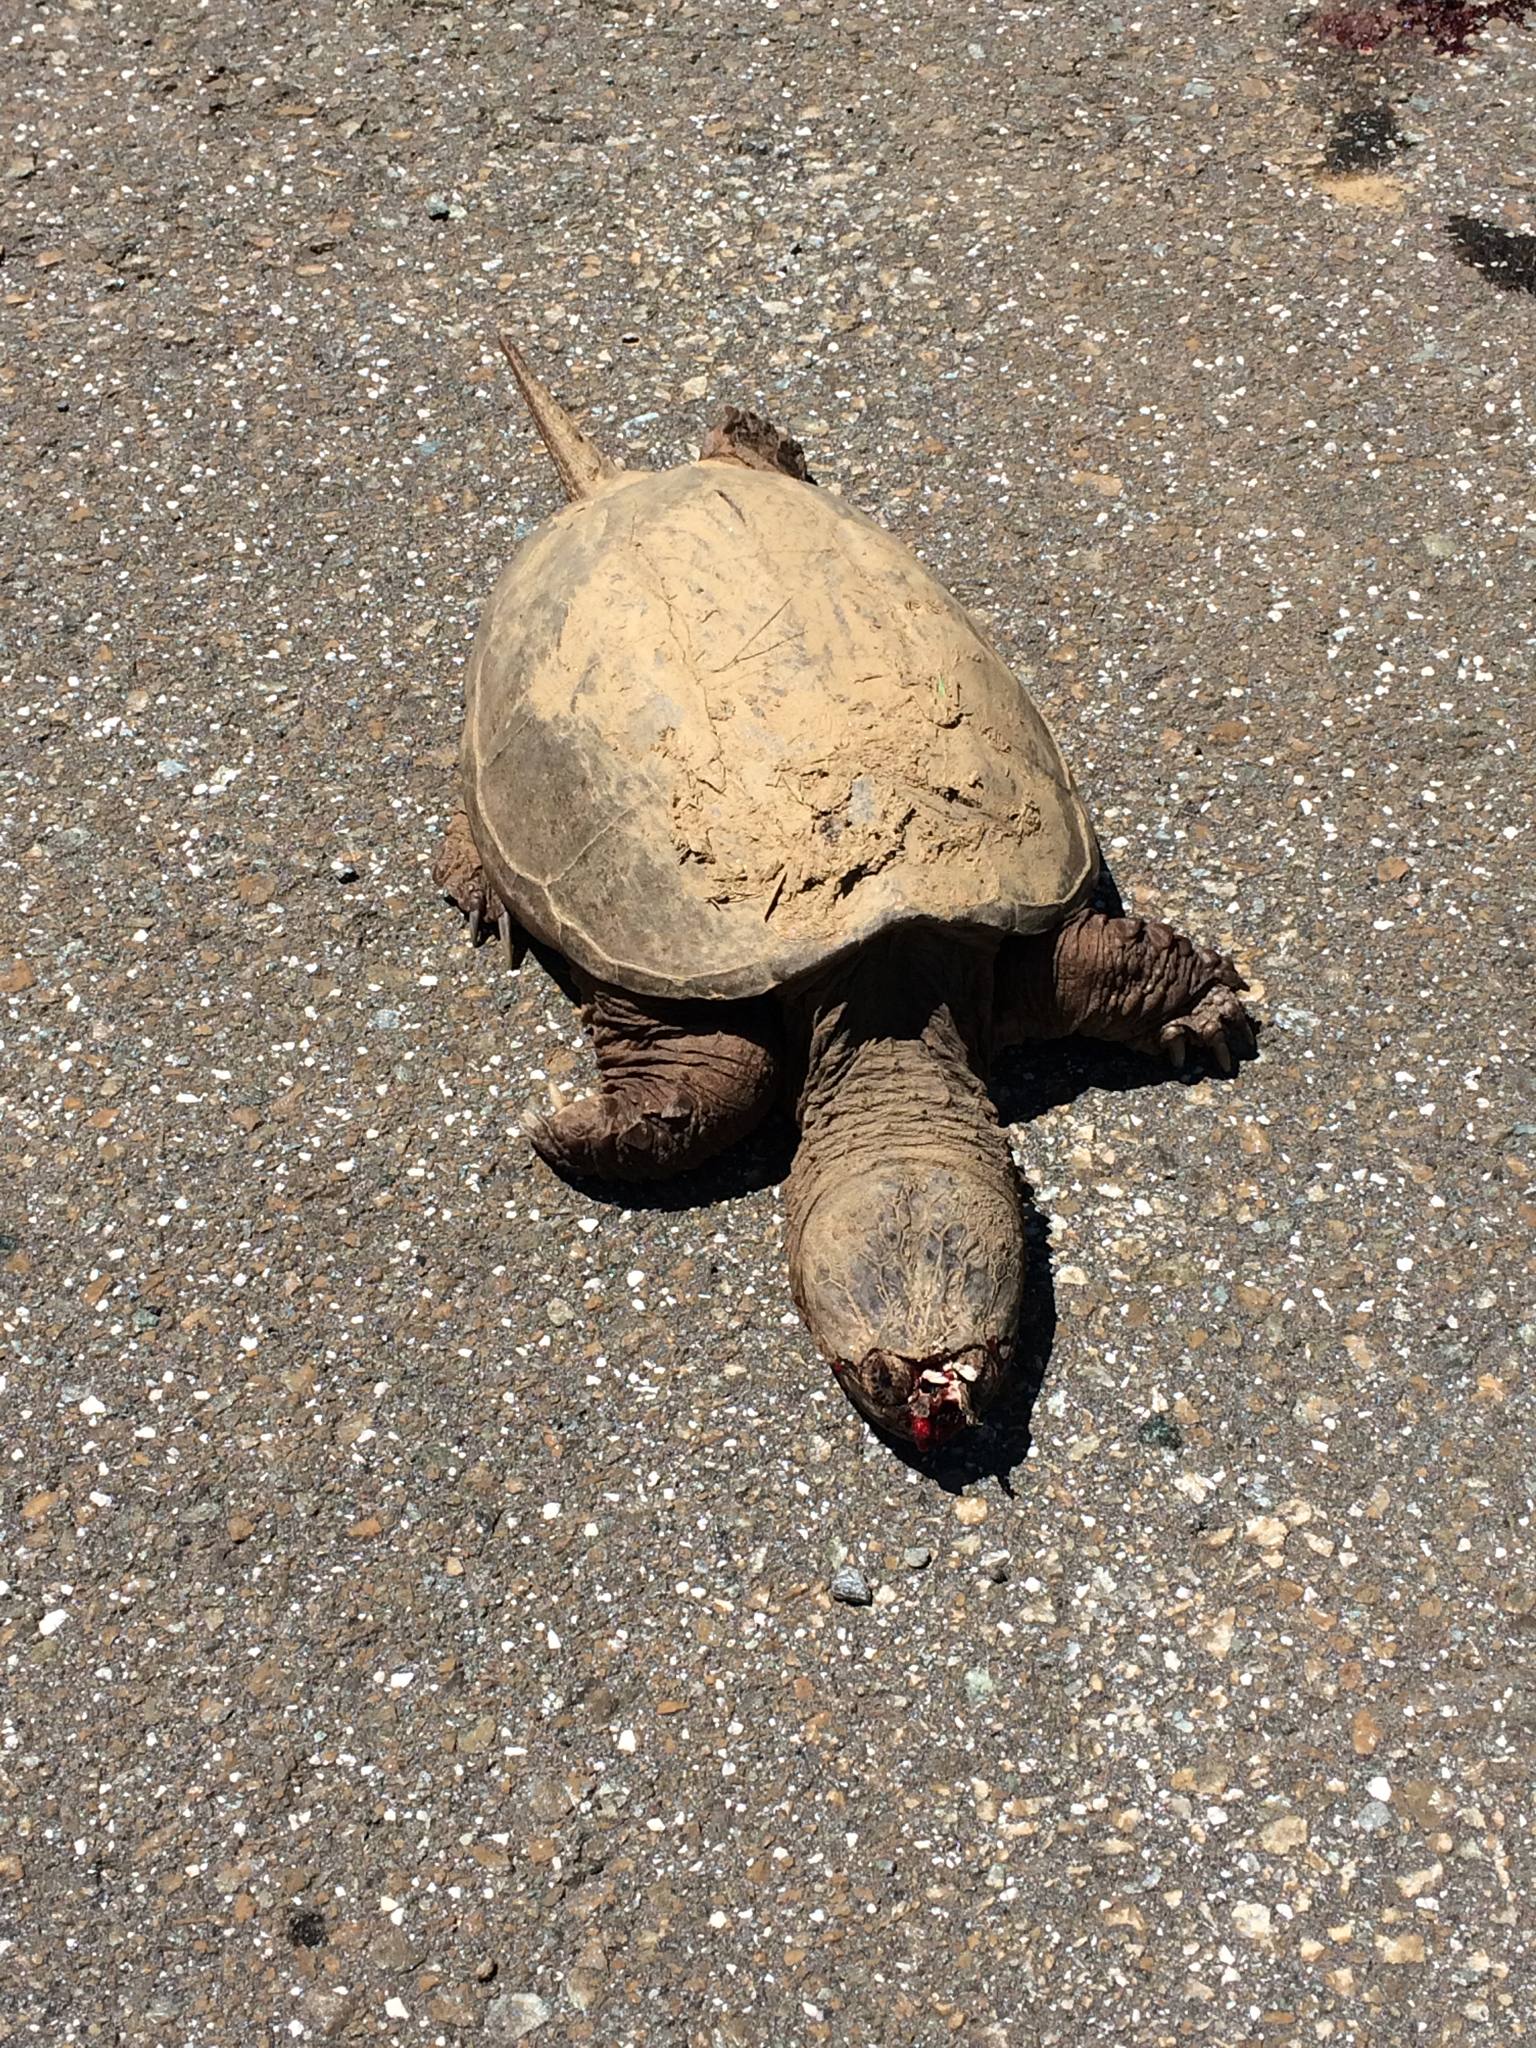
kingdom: Animalia
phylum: Chordata
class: Testudines
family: Chelydridae
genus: Chelydra
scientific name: Chelydra serpentina
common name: Common snapping turtle
